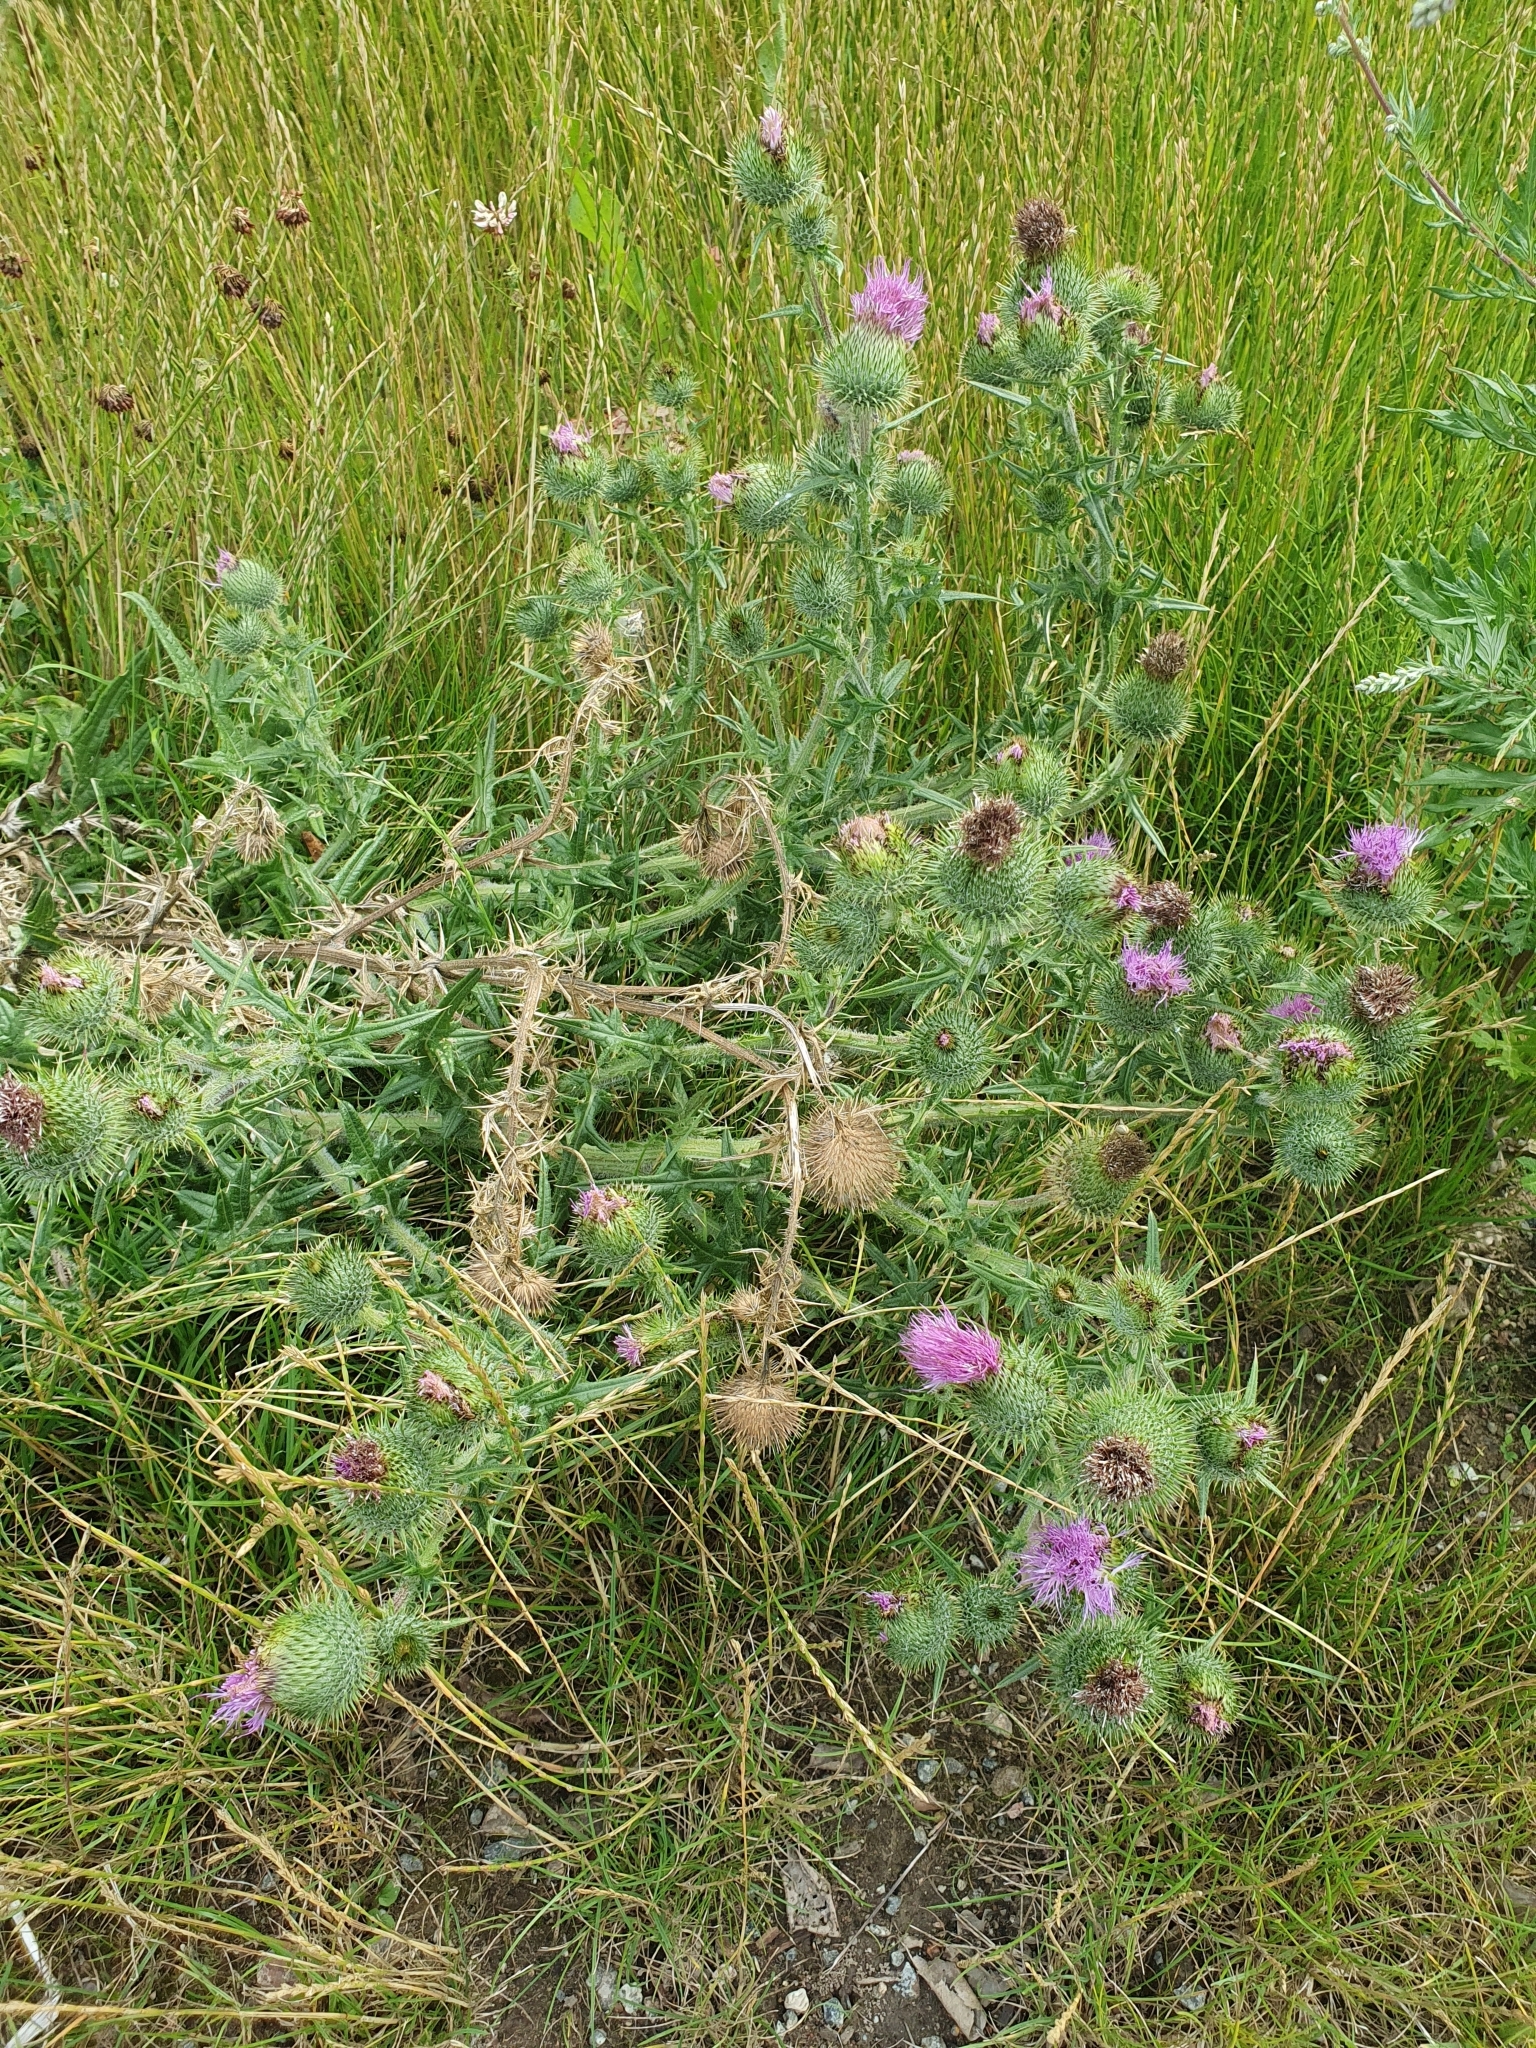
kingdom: Plantae
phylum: Tracheophyta
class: Magnoliopsida
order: Asterales
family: Asteraceae
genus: Cirsium
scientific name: Cirsium vulgare
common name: Bull thistle
